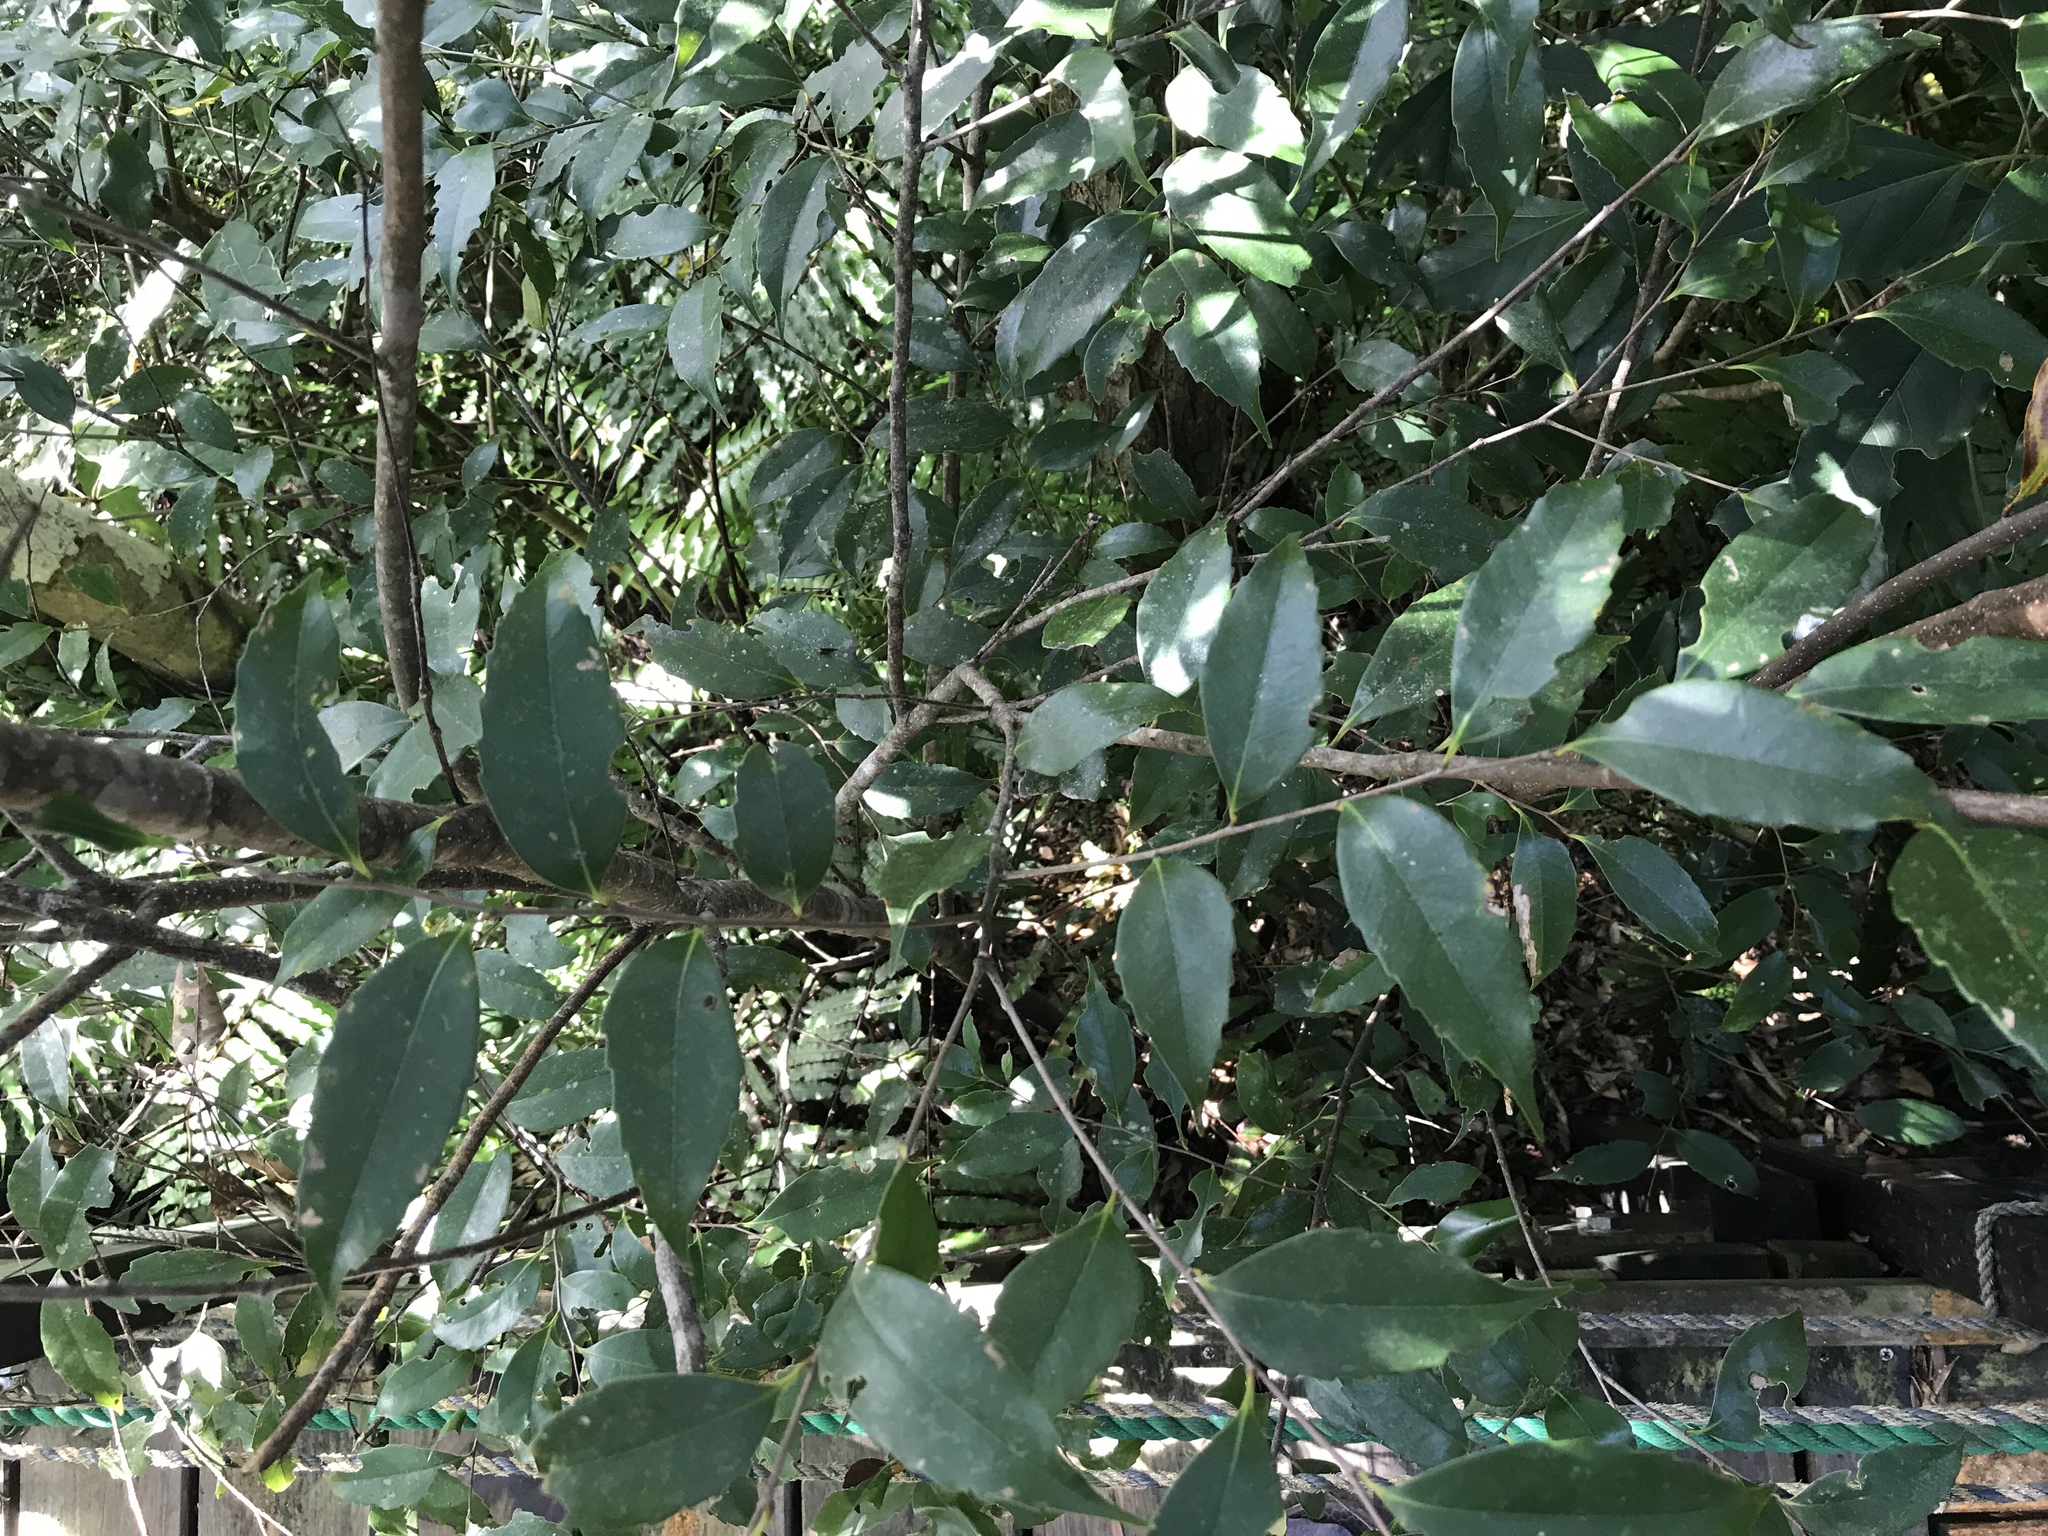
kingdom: Plantae
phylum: Tracheophyta
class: Magnoliopsida
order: Fagales
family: Fagaceae
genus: Castanopsis
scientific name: Castanopsis sieboldii
